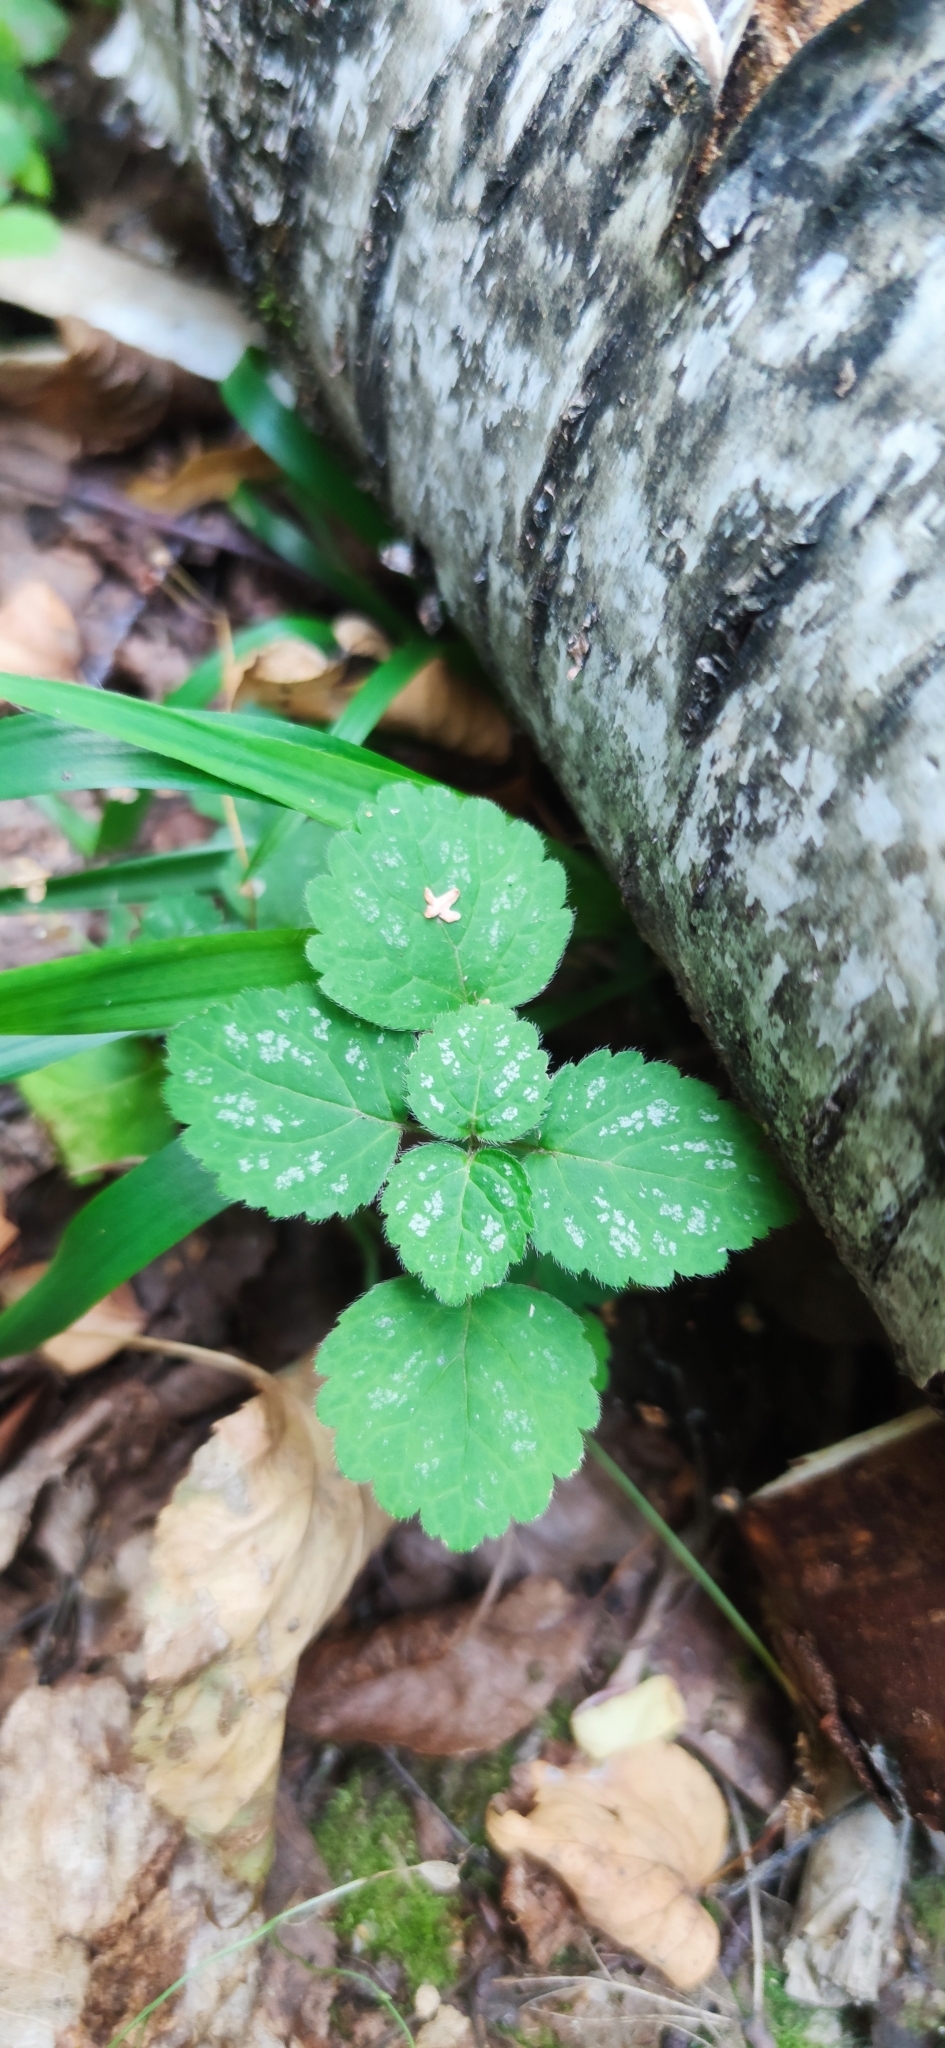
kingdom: Plantae
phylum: Tracheophyta
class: Magnoliopsida
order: Lamiales
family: Lamiaceae
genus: Lamium
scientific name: Lamium galeobdolon
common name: Yellow archangel
